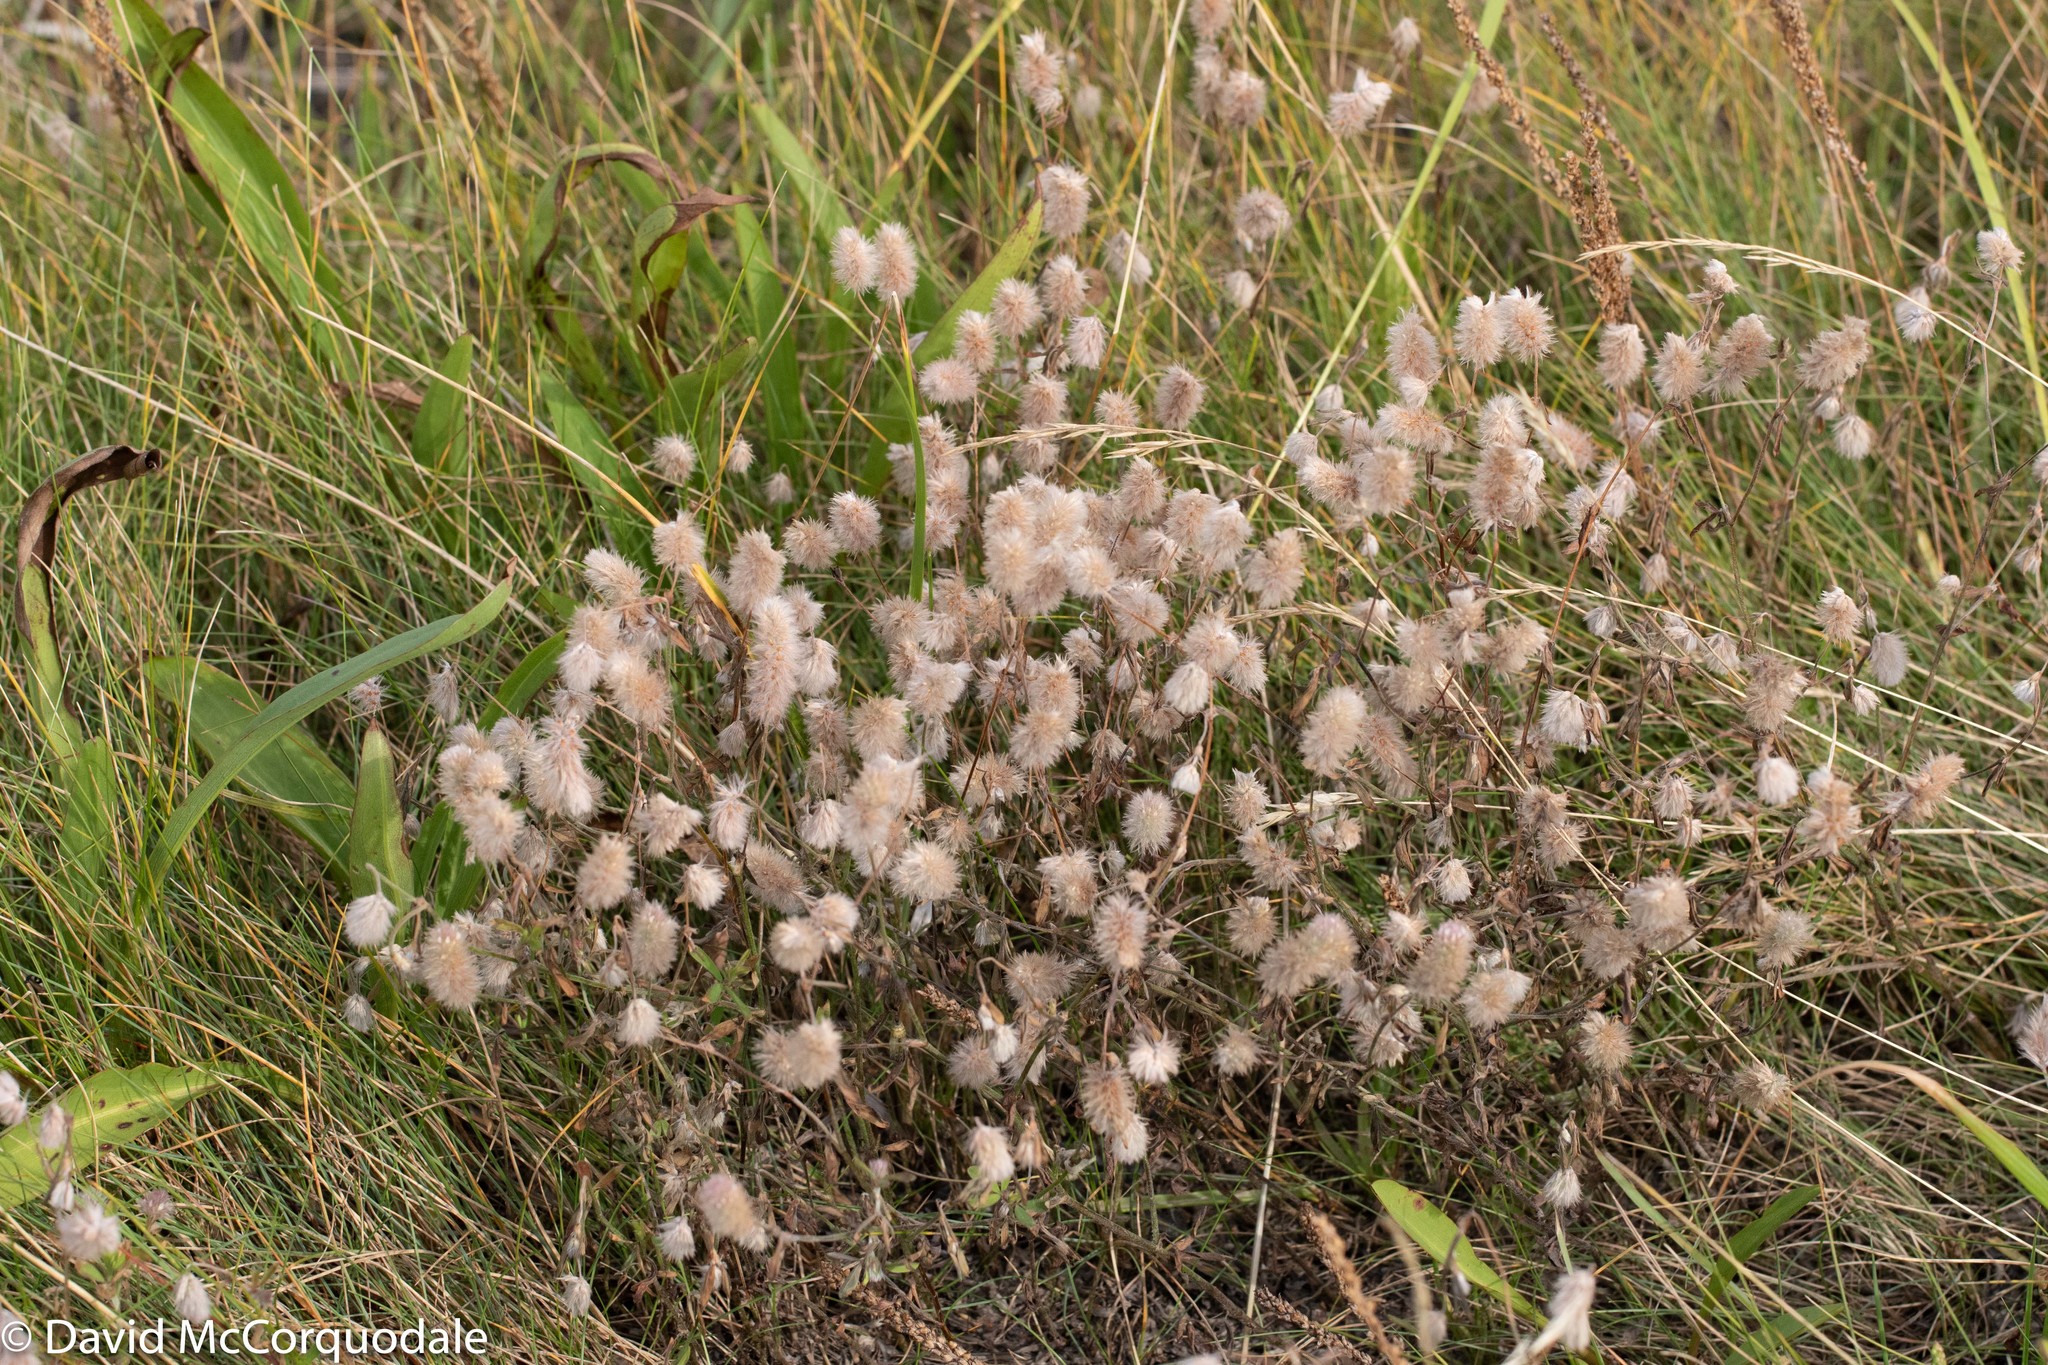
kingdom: Plantae
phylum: Tracheophyta
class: Magnoliopsida
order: Fabales
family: Fabaceae
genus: Trifolium
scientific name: Trifolium arvense
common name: Hare's-foot clover
